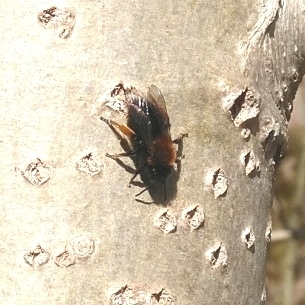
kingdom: Animalia
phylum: Arthropoda
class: Insecta
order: Hymenoptera
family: Andrenidae
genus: Andrena
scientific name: Andrena clarkella
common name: Clarke's mining bee
